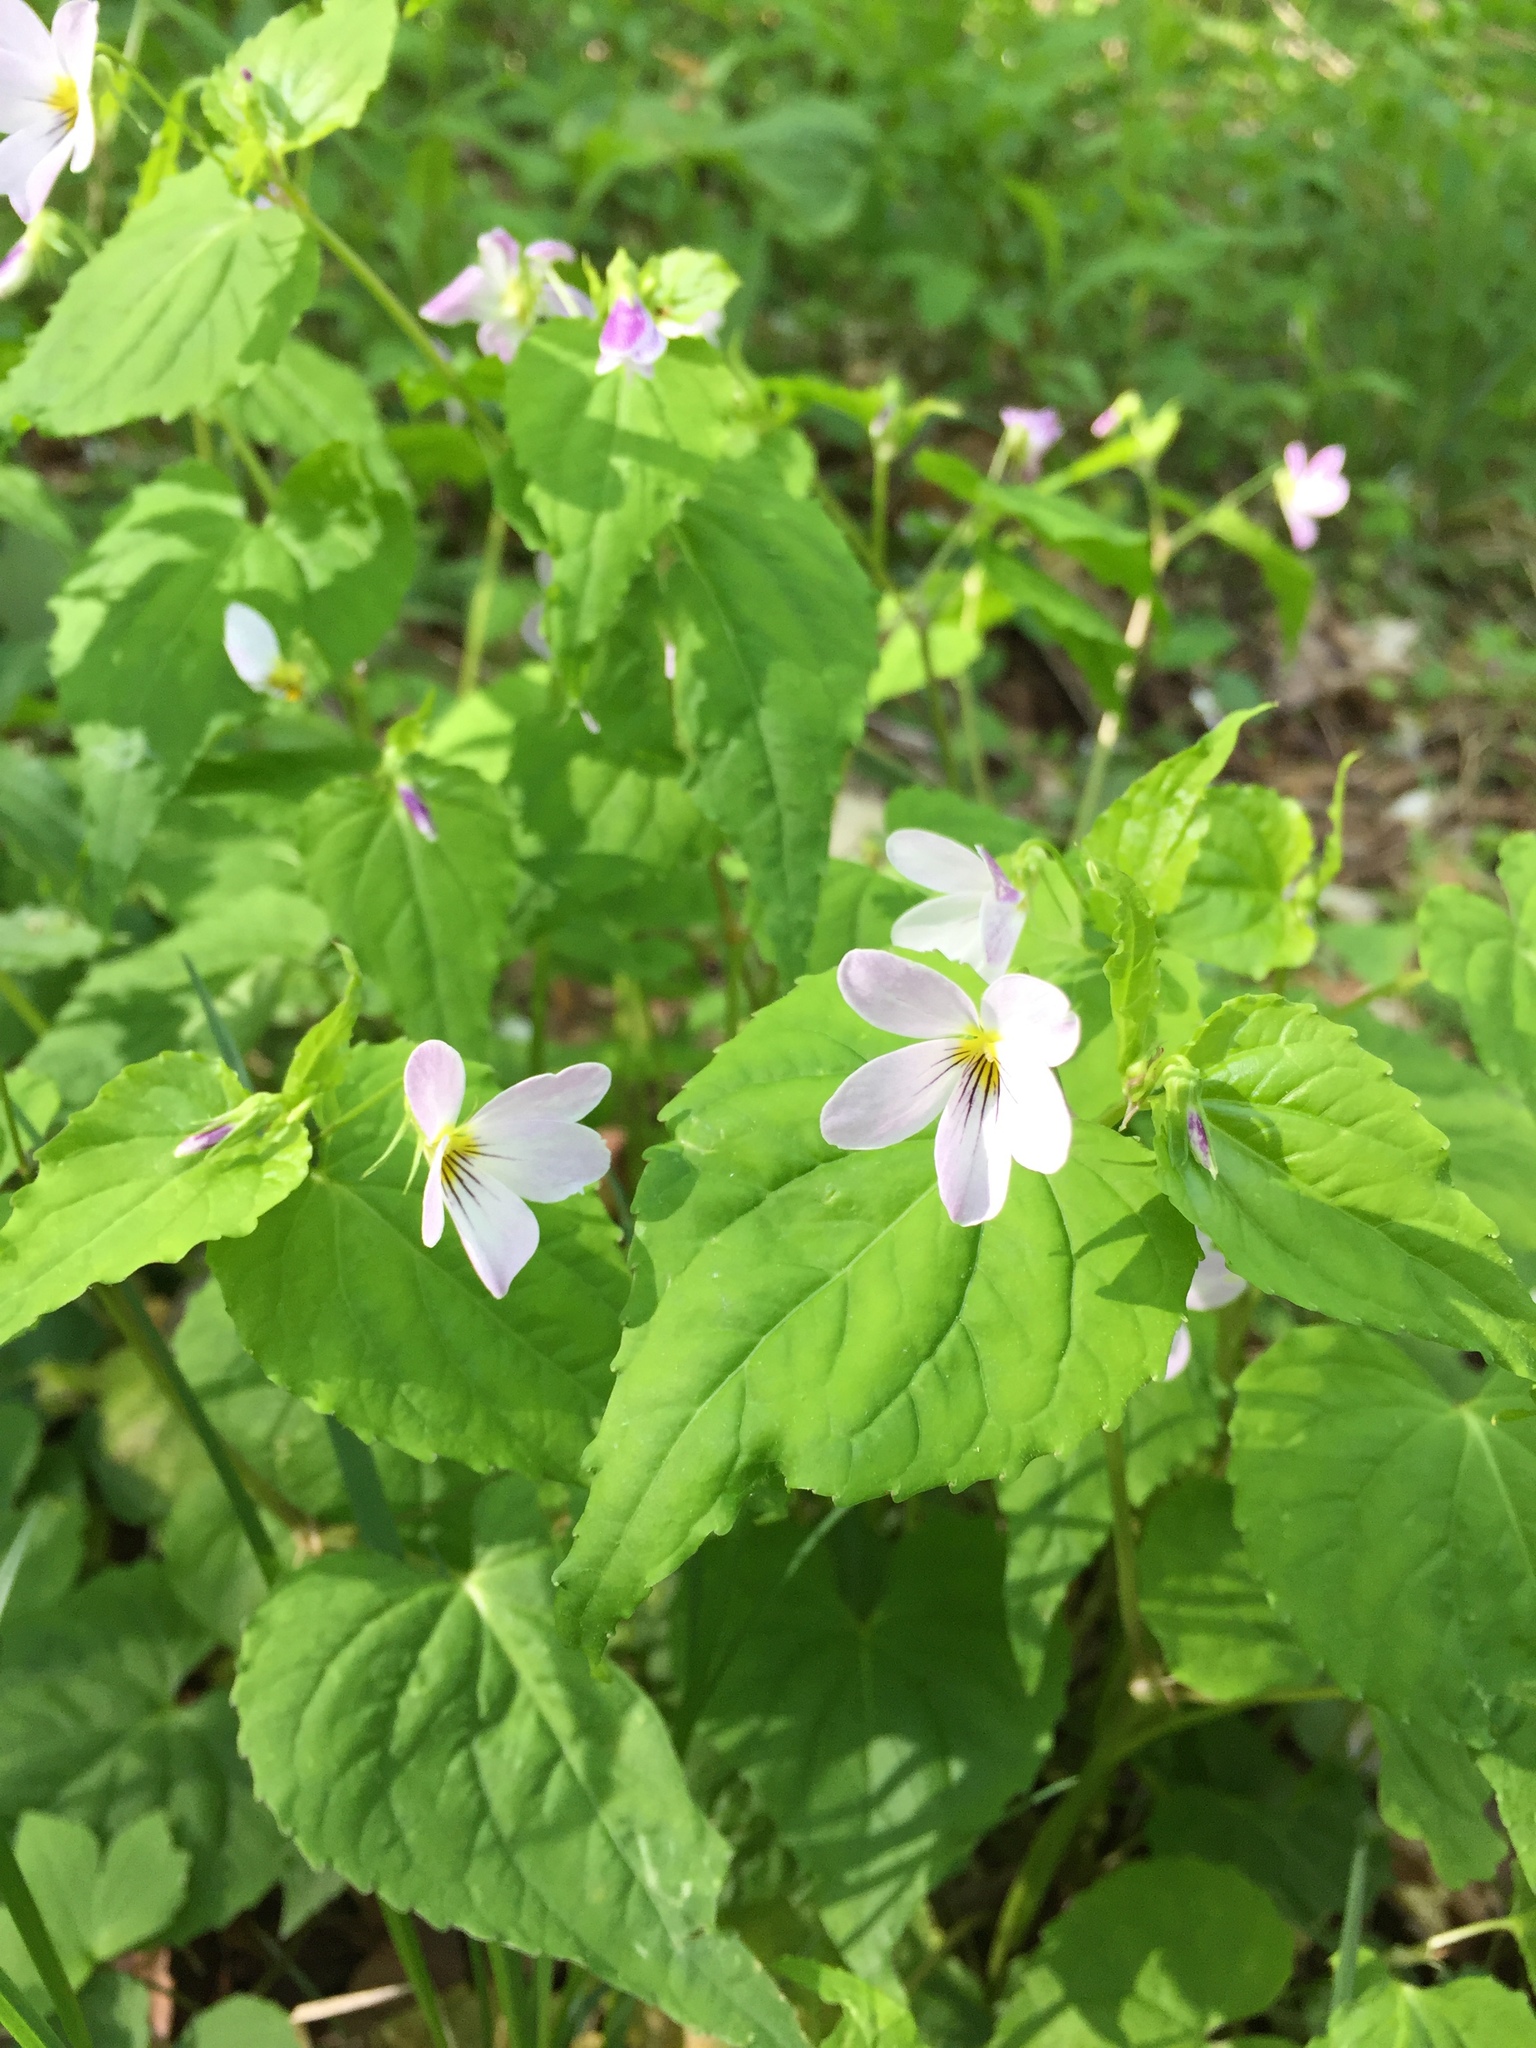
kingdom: Plantae
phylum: Tracheophyta
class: Magnoliopsida
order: Malpighiales
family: Violaceae
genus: Viola
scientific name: Viola canadensis
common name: Canada violet
